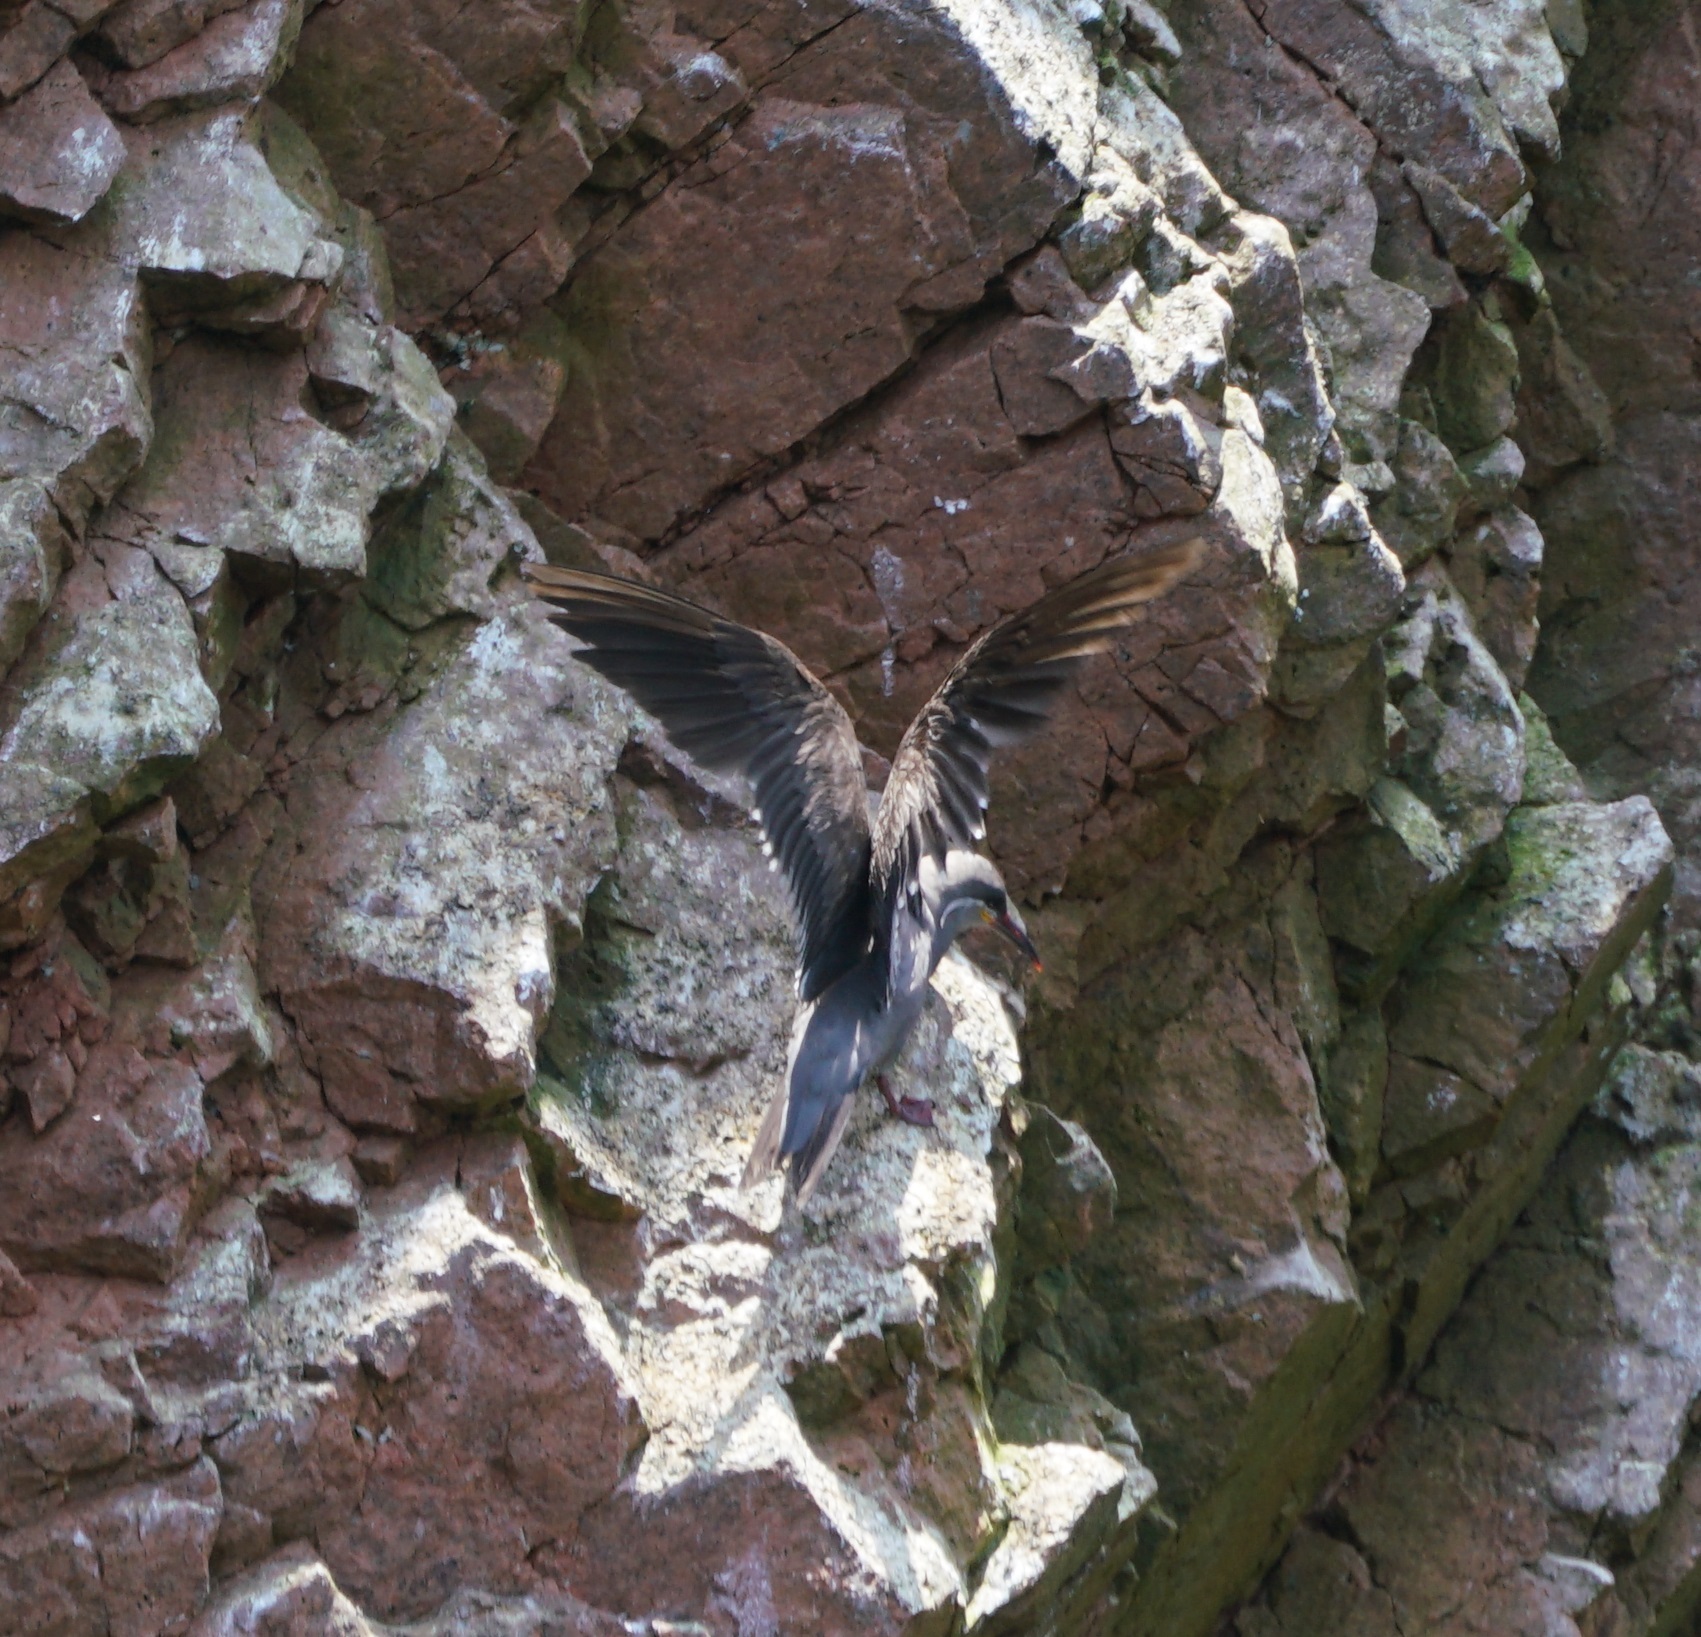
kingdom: Animalia
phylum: Chordata
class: Aves
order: Charadriiformes
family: Laridae
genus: Larosterna
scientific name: Larosterna inca
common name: Inca tern
